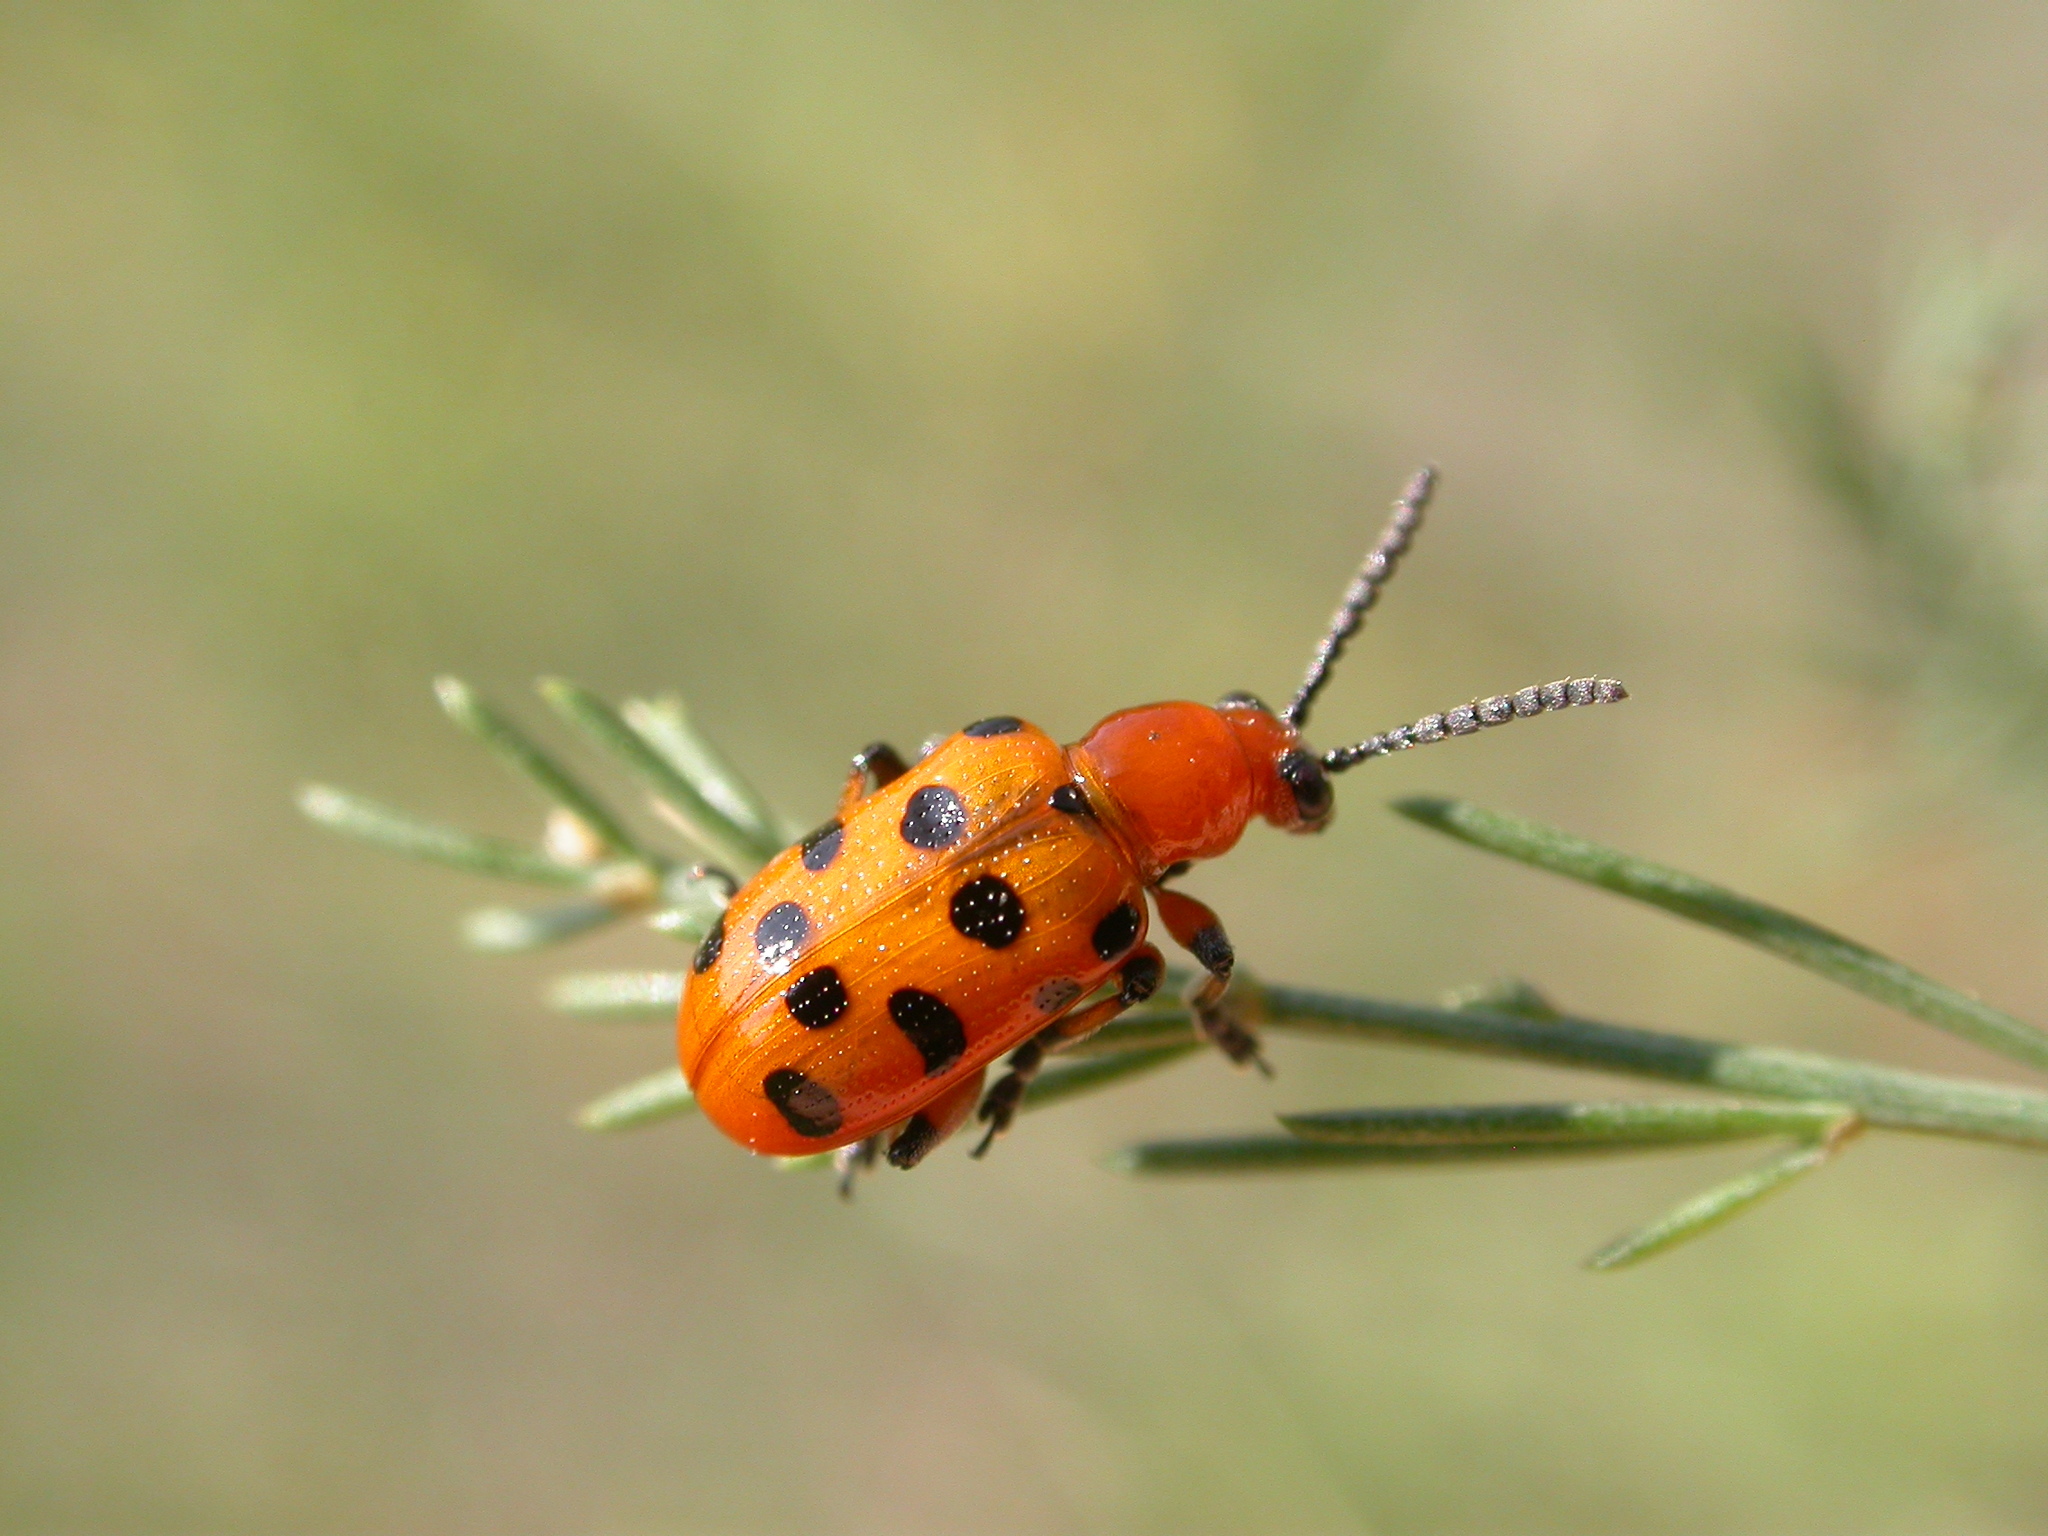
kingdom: Animalia
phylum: Arthropoda
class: Insecta
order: Coleoptera
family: Chrysomelidae
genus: Crioceris
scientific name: Crioceris duodecimpunctata
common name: Twelve-spotted asparagus beetle
